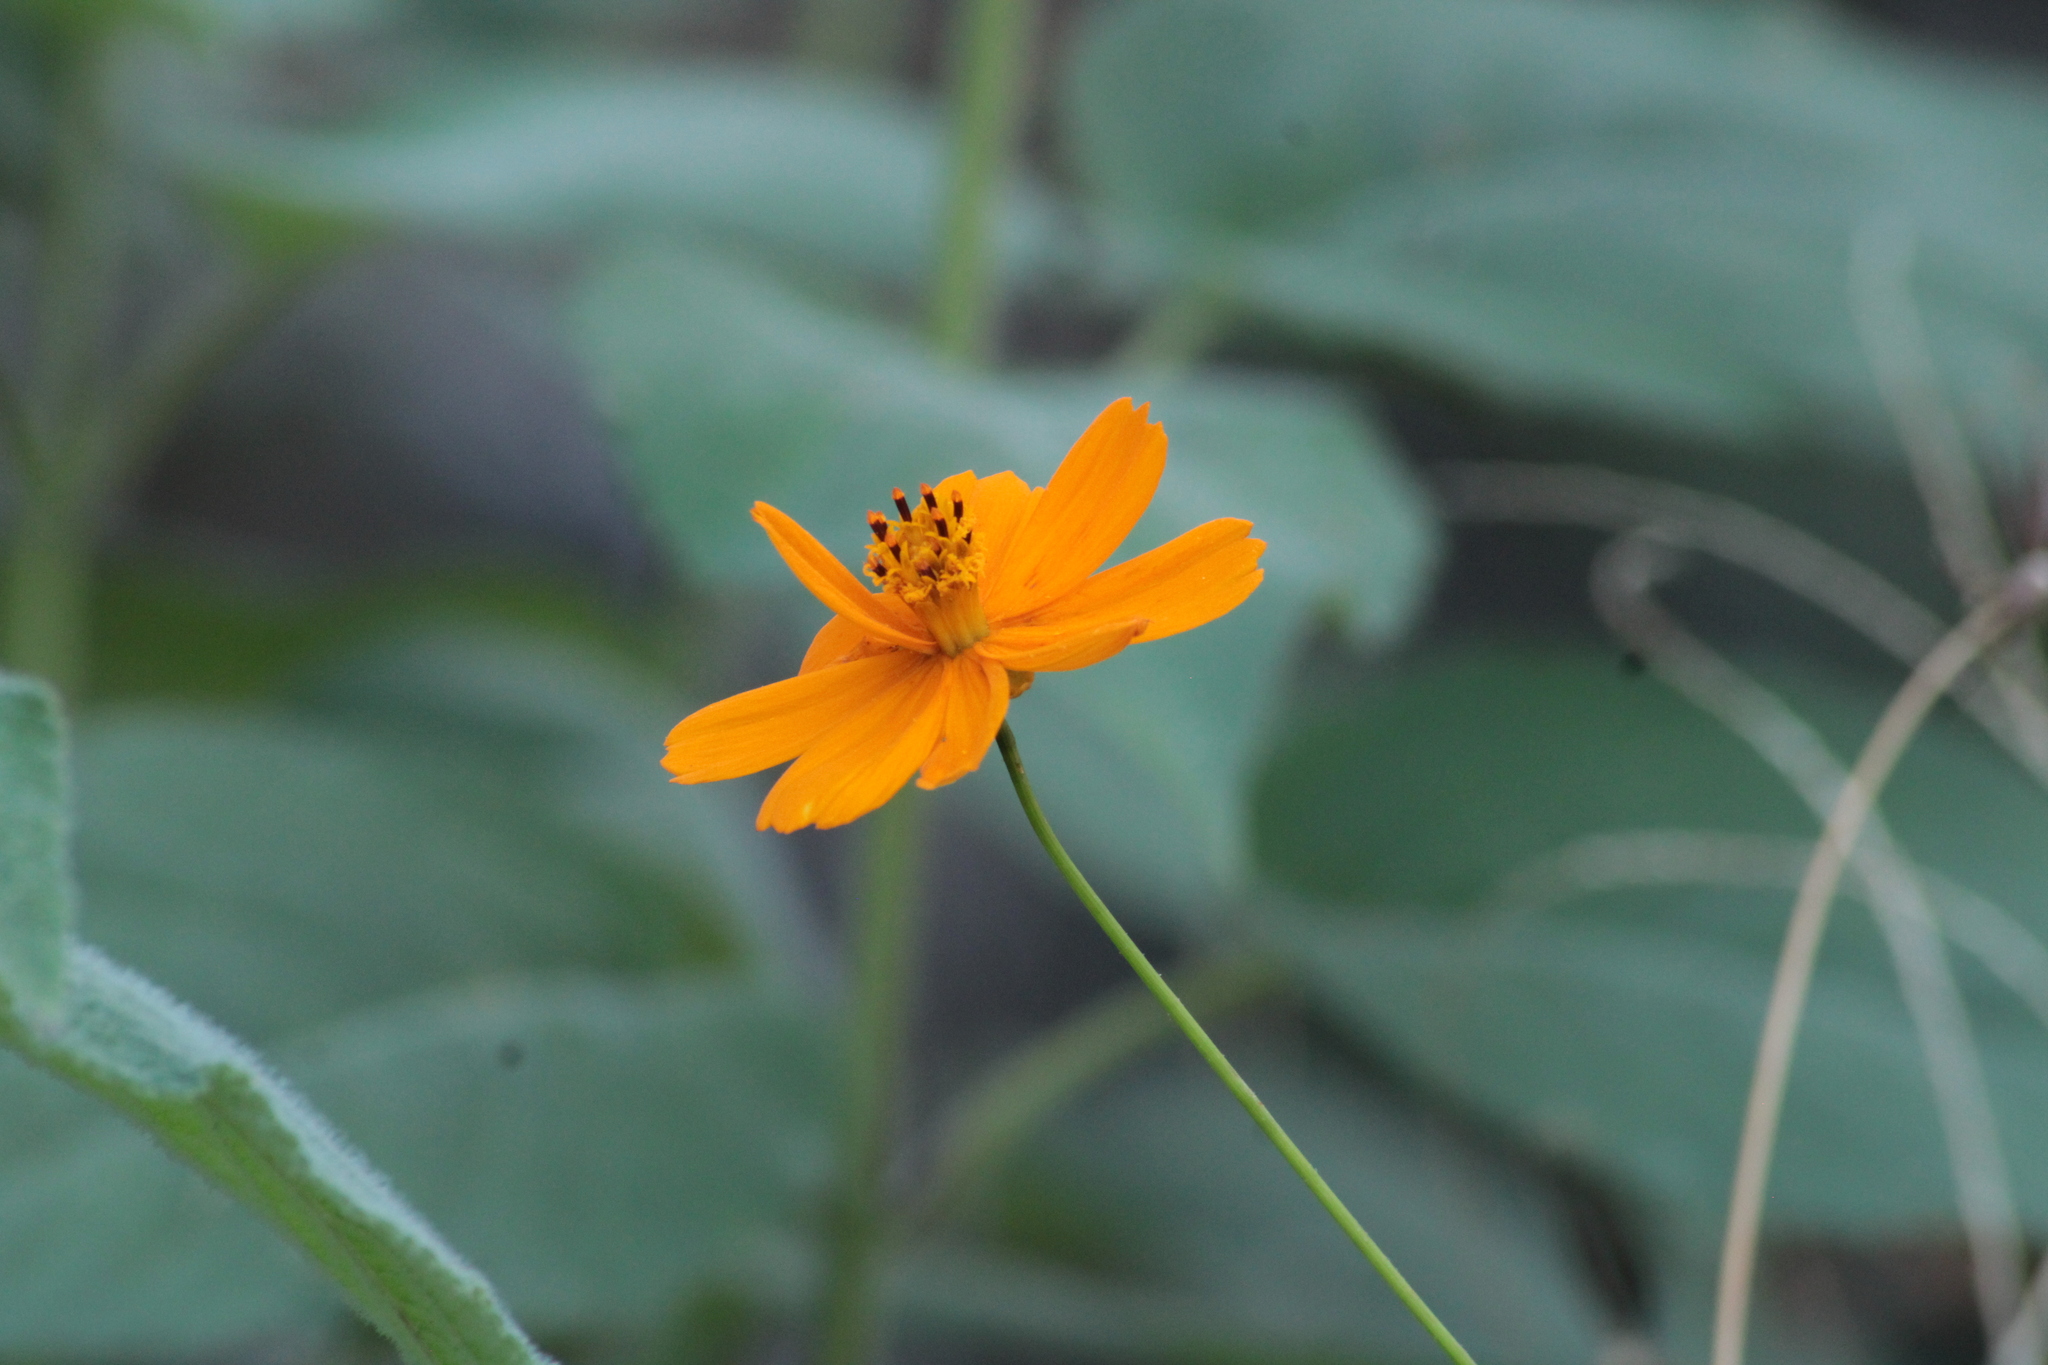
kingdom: Plantae
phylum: Tracheophyta
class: Magnoliopsida
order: Asterales
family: Asteraceae
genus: Cosmos
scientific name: Cosmos sulphureus
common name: Sulphur cosmos
